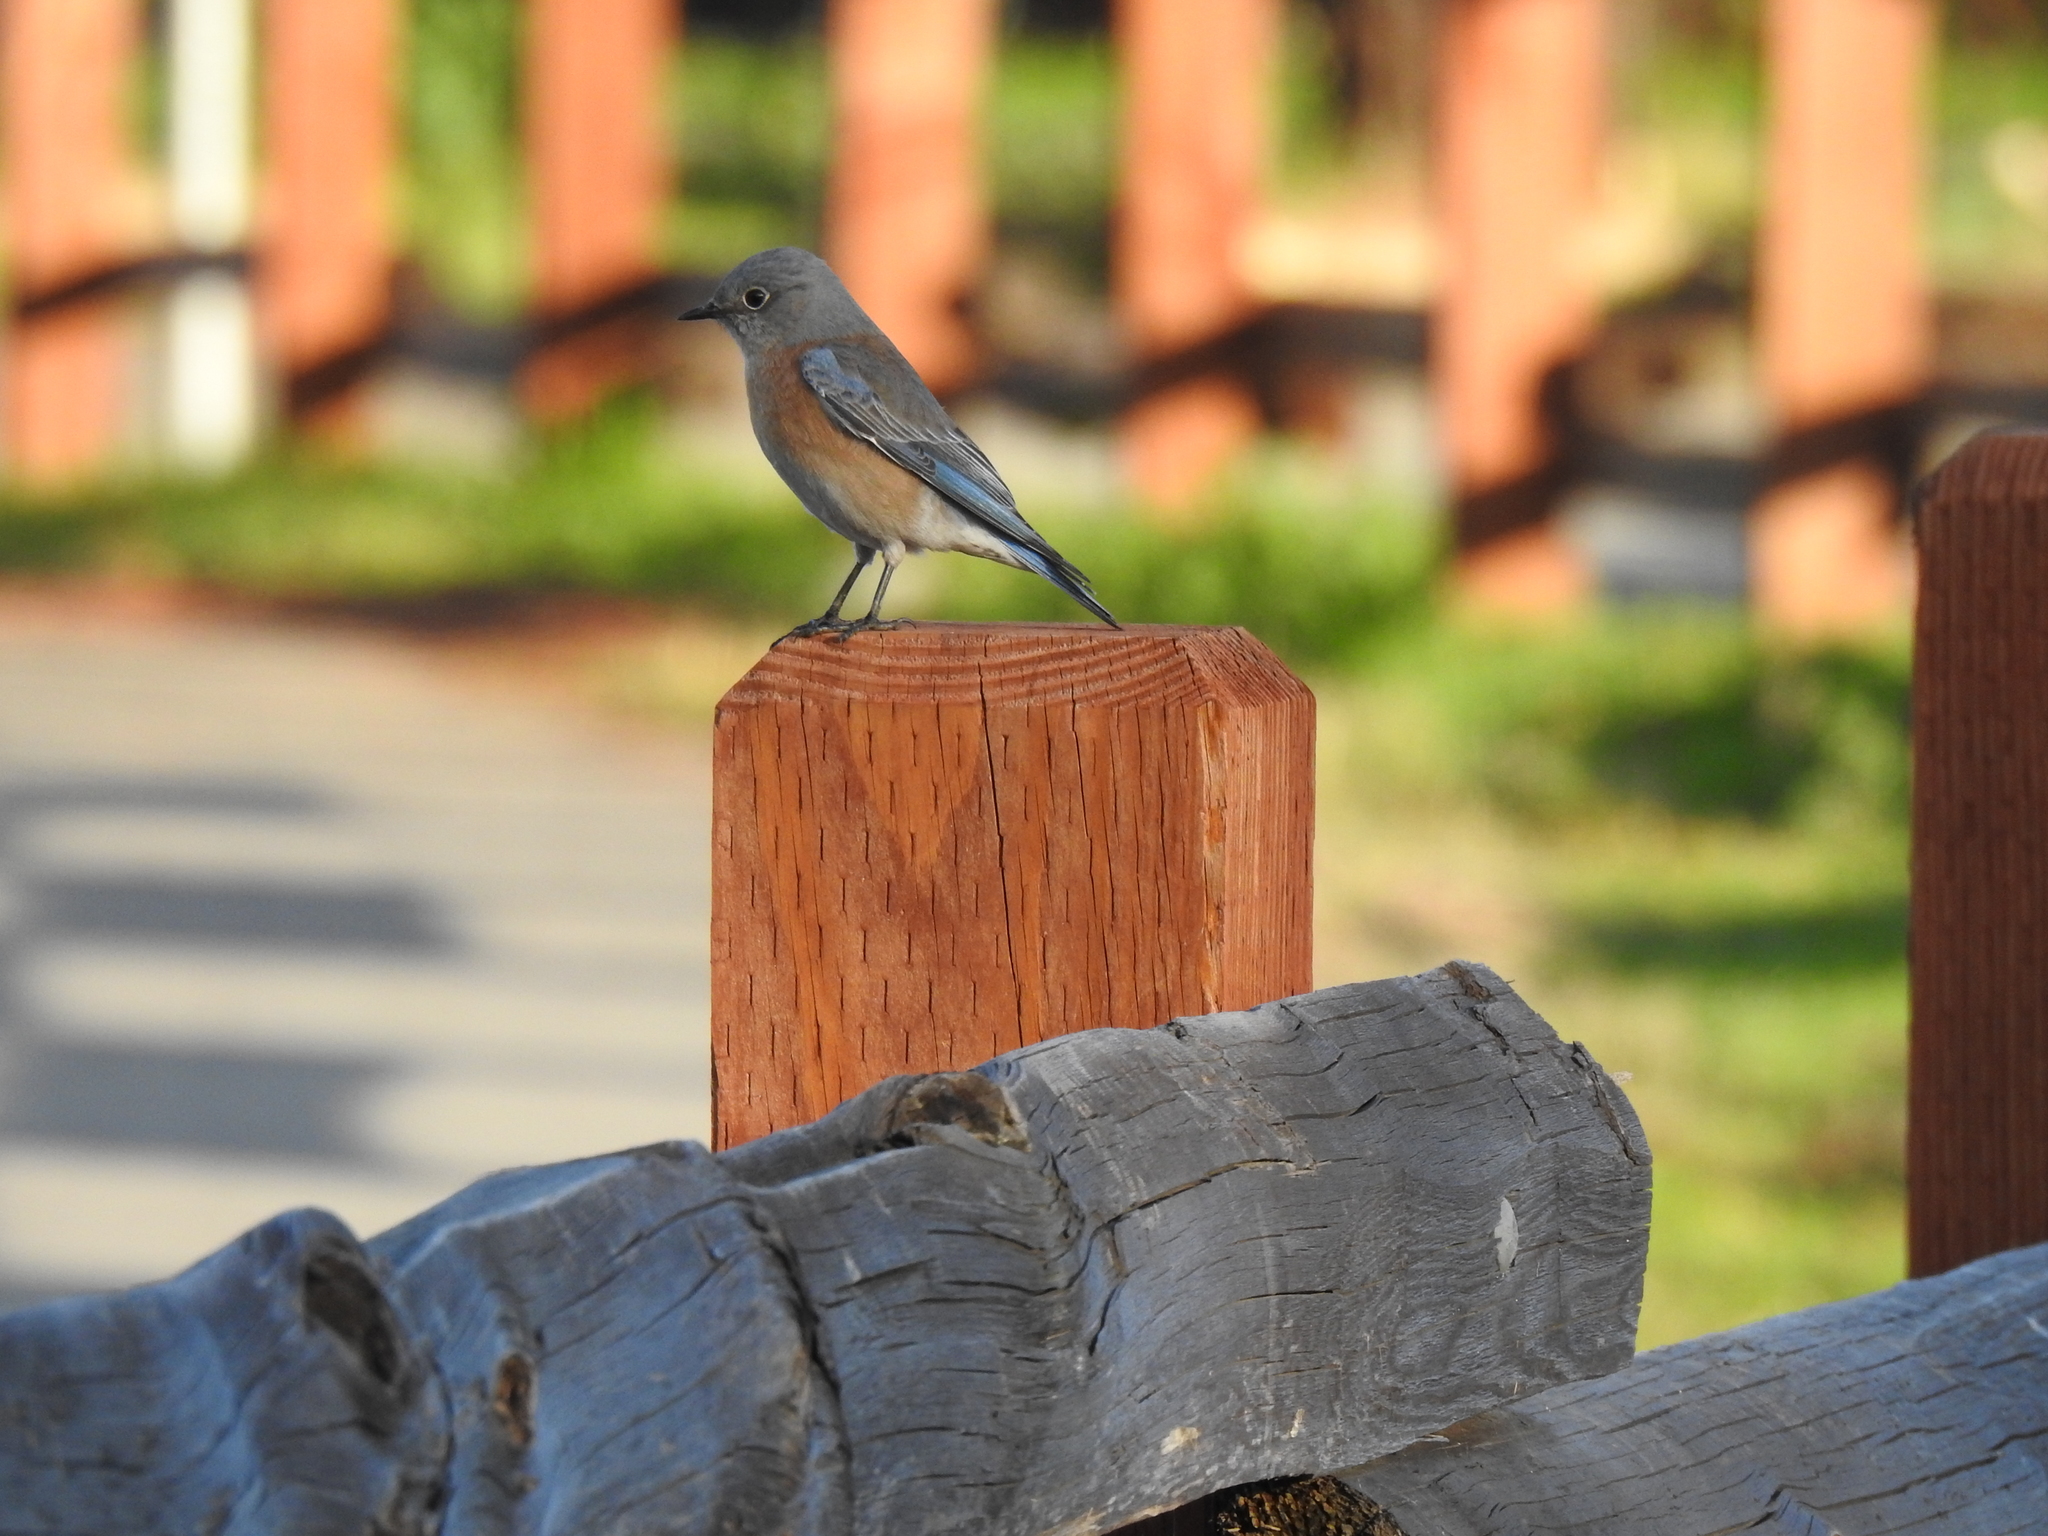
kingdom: Animalia
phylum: Chordata
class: Aves
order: Passeriformes
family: Turdidae
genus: Sialia
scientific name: Sialia mexicana
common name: Western bluebird
